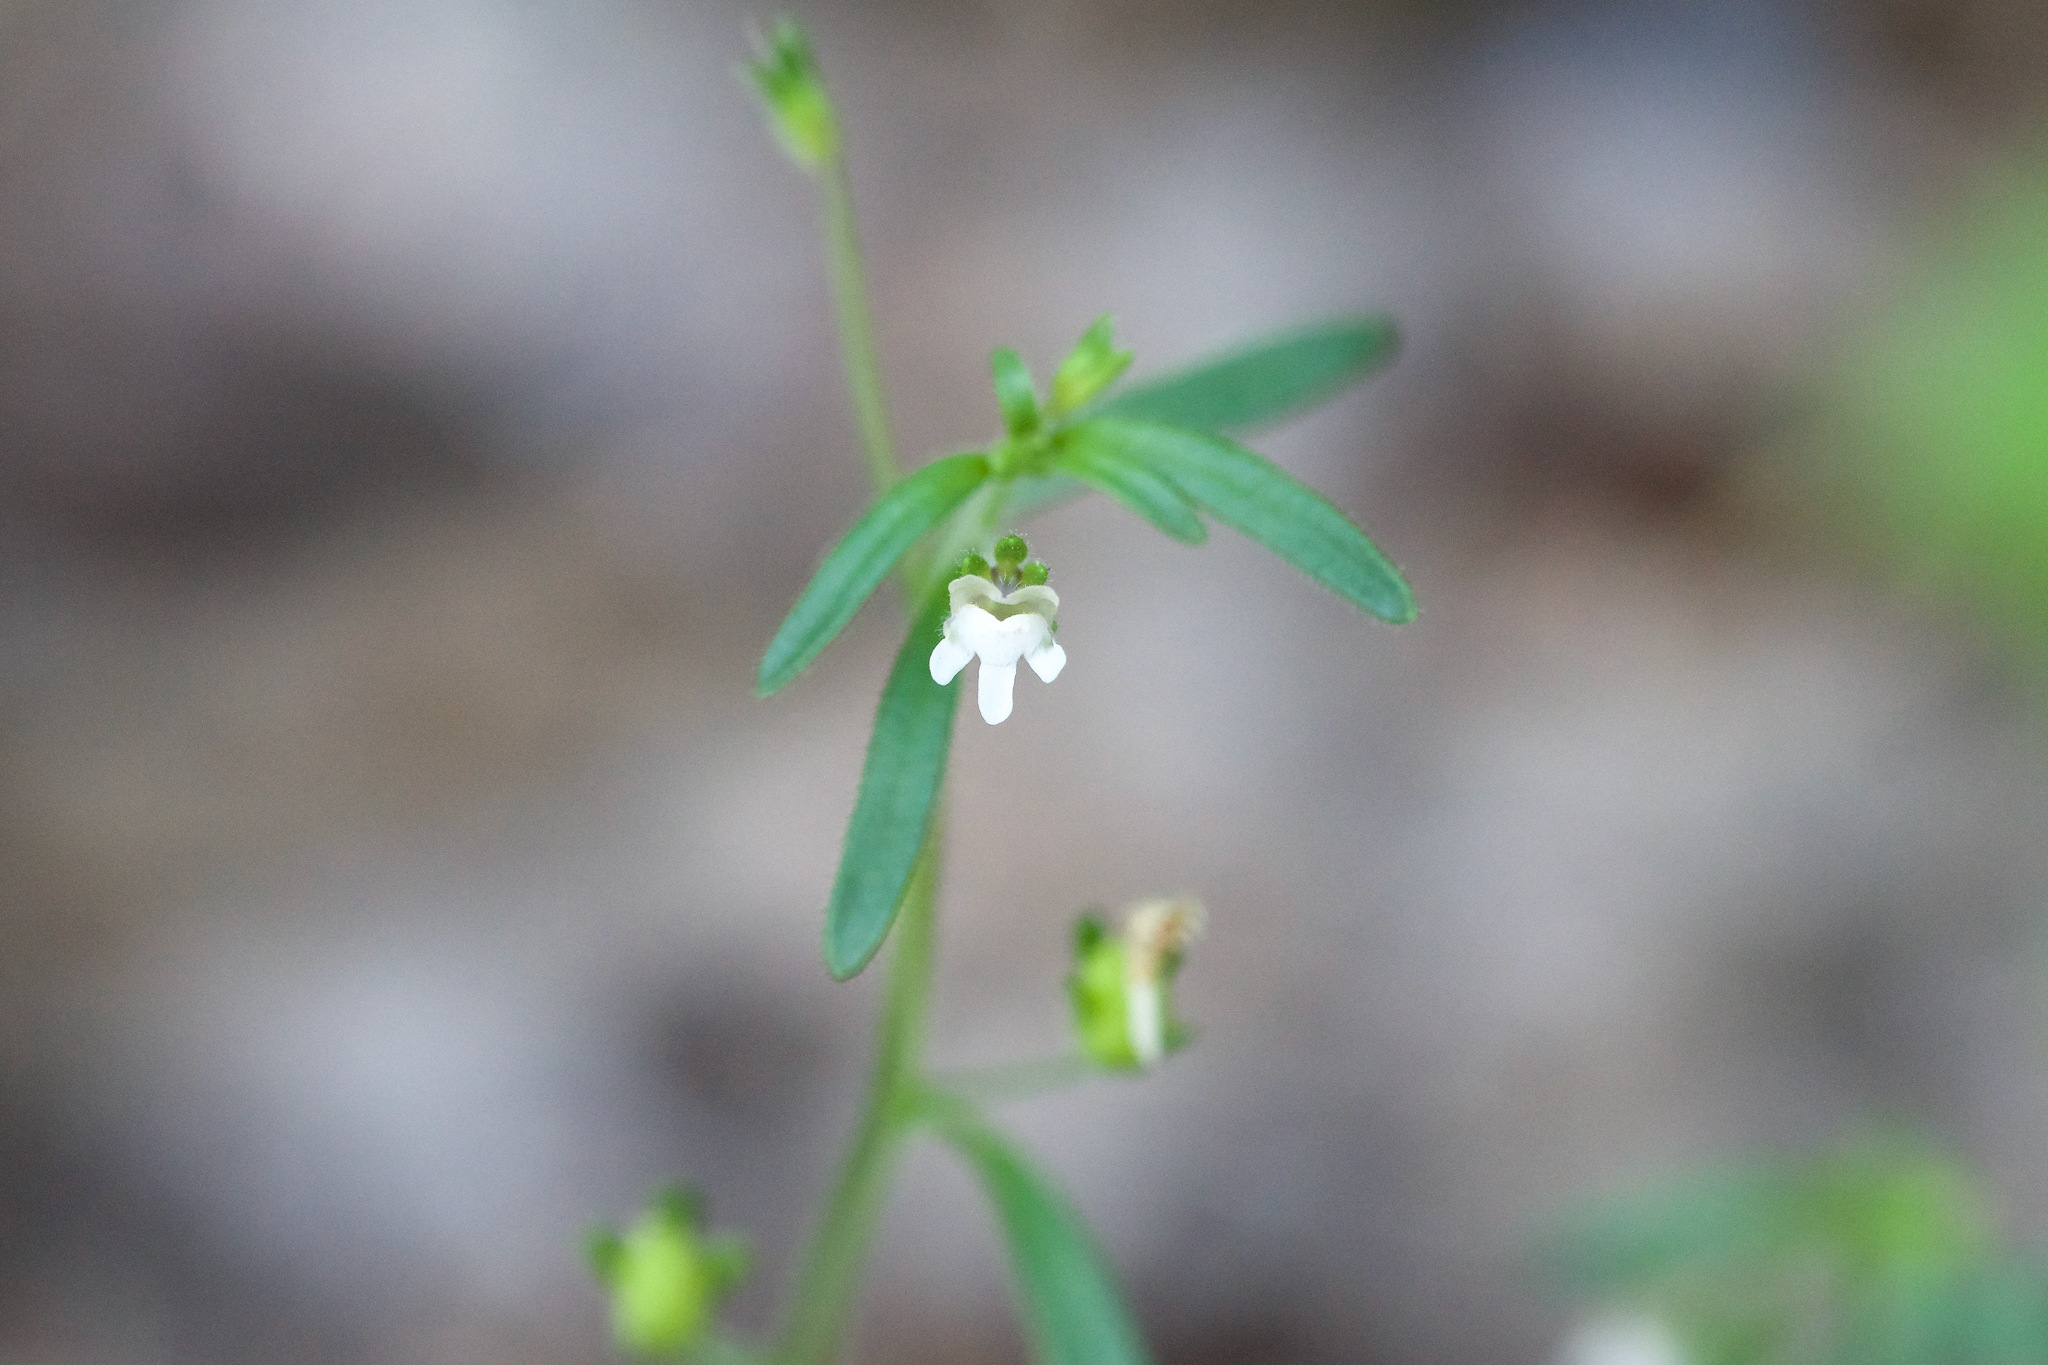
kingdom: Plantae
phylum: Tracheophyta
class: Magnoliopsida
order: Lamiales
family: Plantaginaceae
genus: Chaenorhinum
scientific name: Chaenorhinum minus
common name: Dwarf snapdragon
